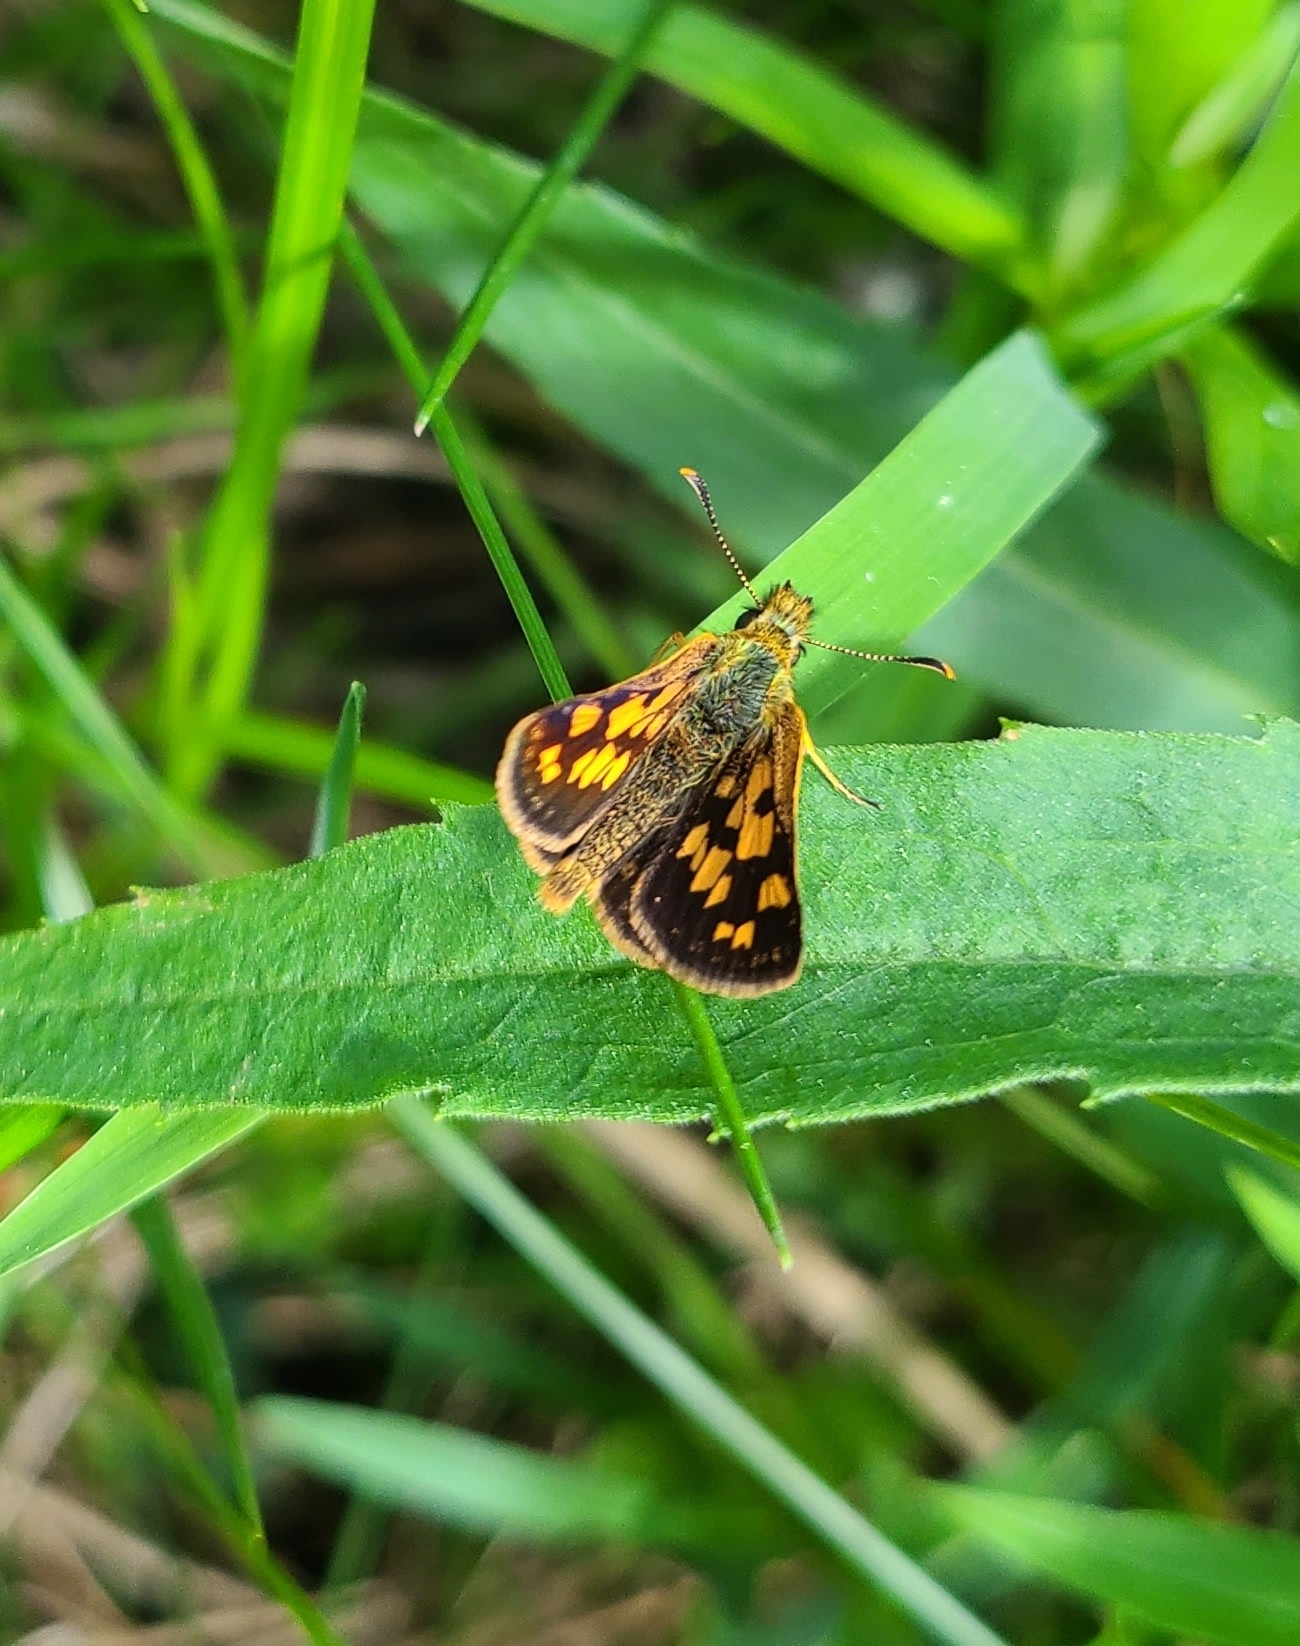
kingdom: Animalia
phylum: Arthropoda
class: Insecta
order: Lepidoptera
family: Hesperiidae
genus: Carterocephalus
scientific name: Carterocephalus mandan
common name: Arctic skipperling
